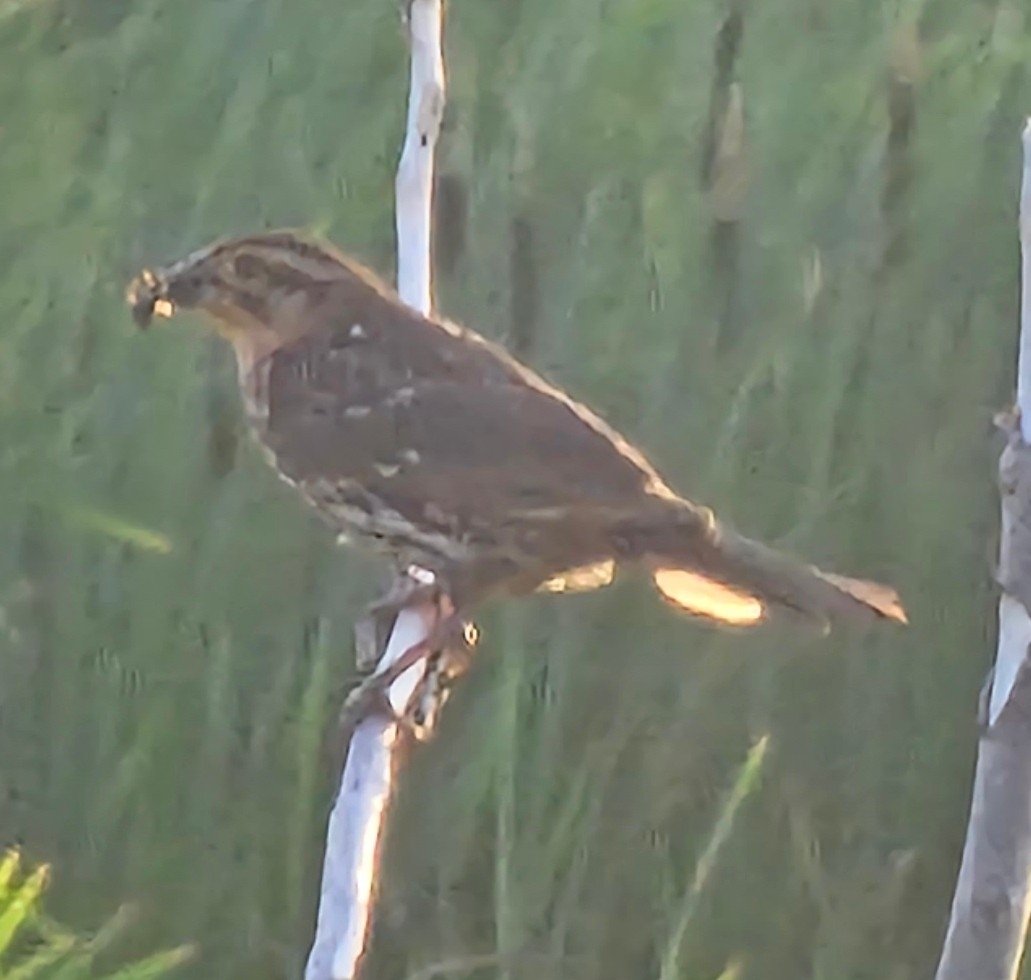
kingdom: Animalia
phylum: Chordata
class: Aves
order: Passeriformes
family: Icteridae
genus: Agelaius
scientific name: Agelaius phoeniceus
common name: Red-winged blackbird
